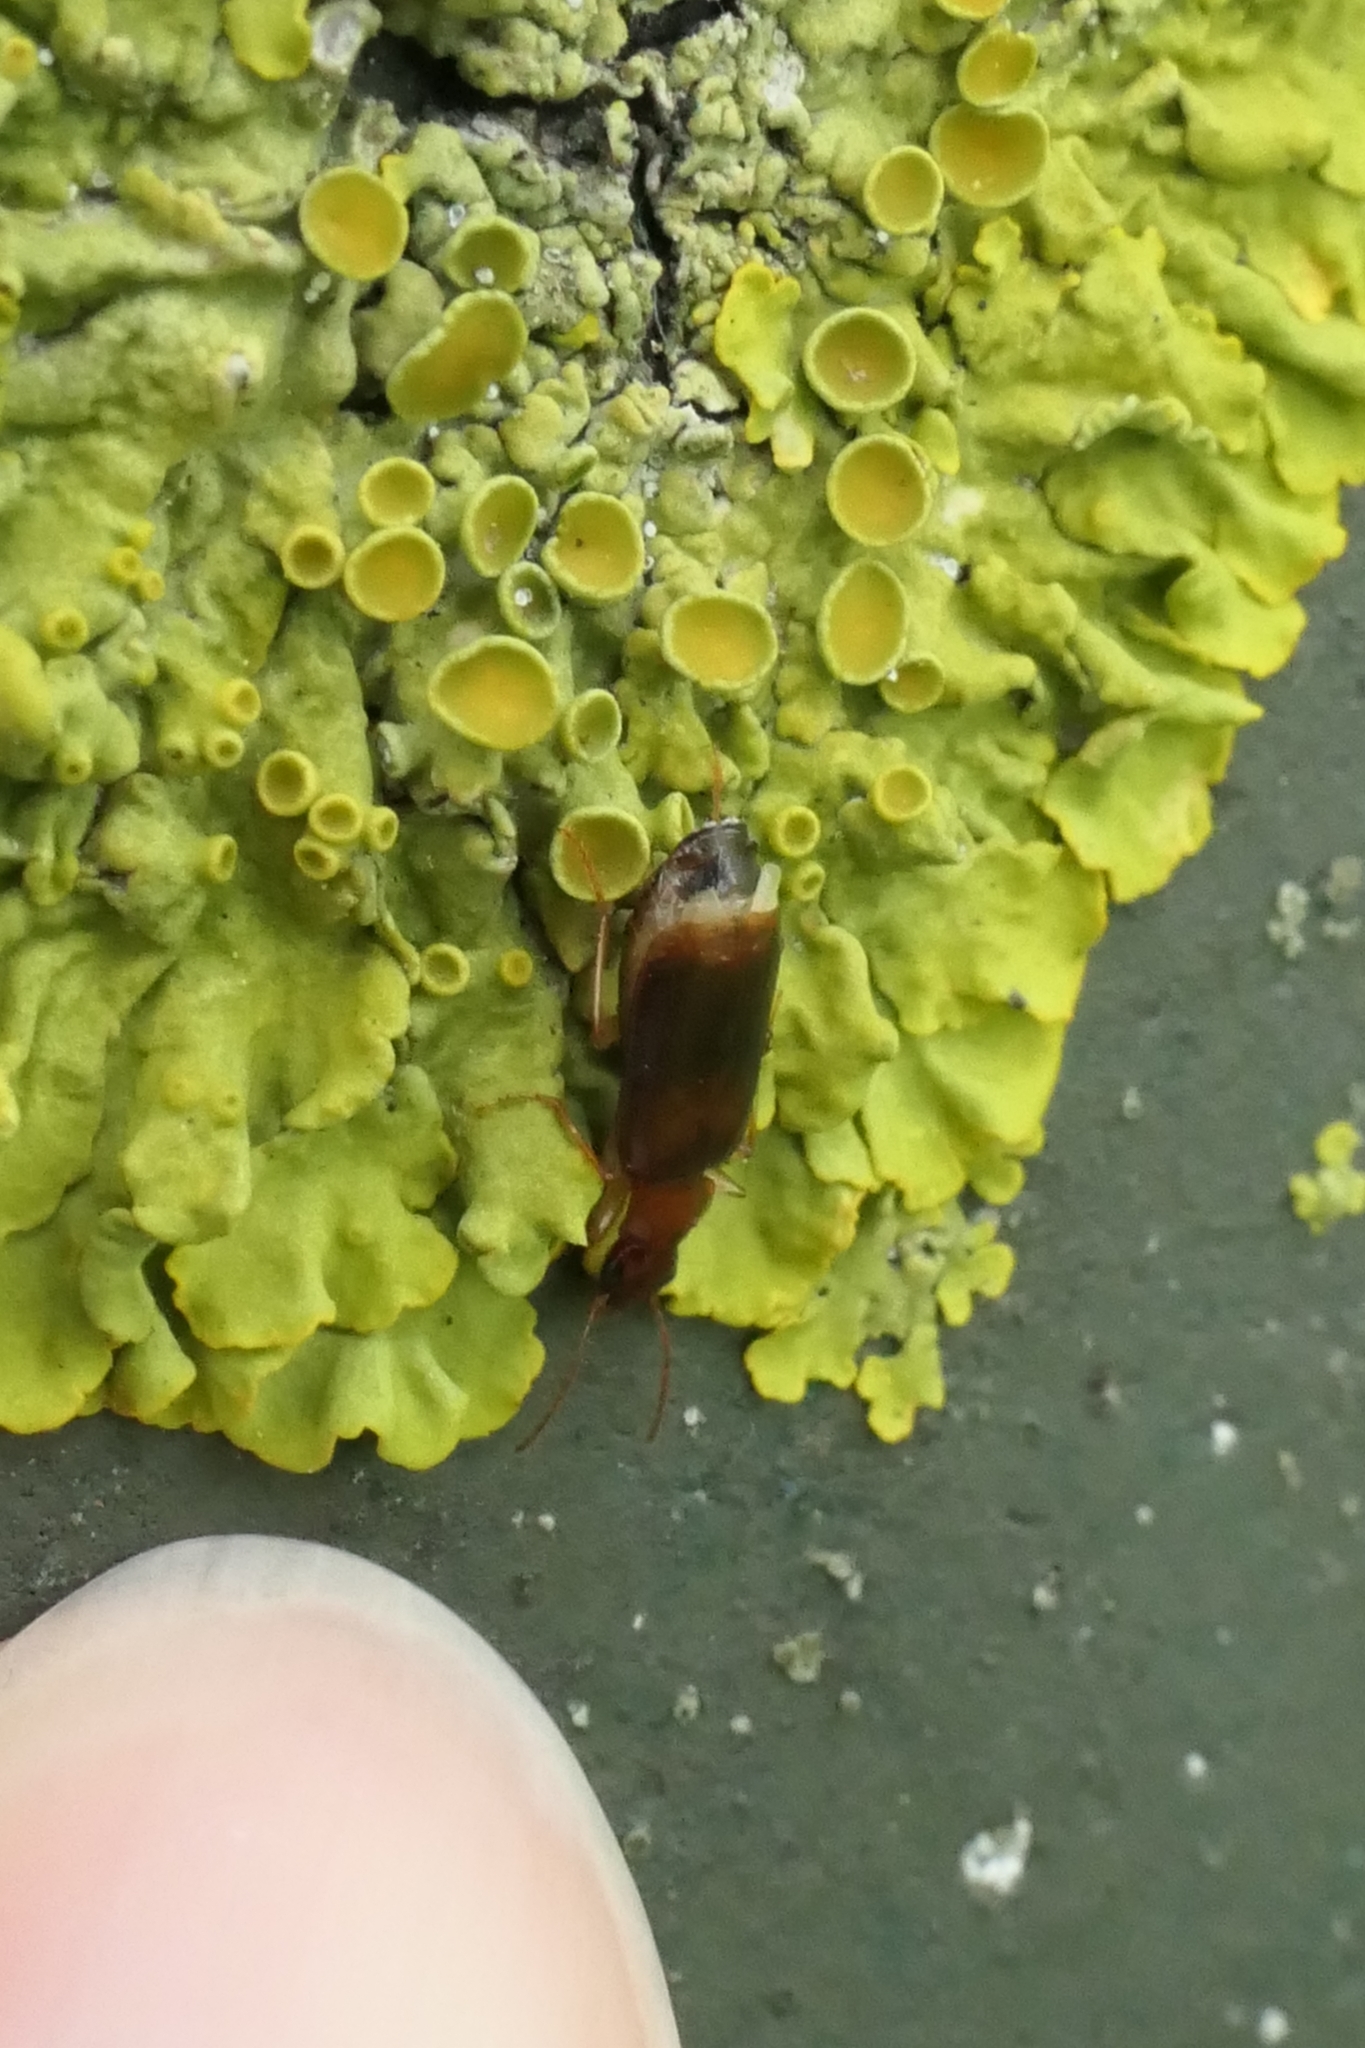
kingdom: Animalia
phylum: Arthropoda
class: Insecta
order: Coleoptera
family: Carabidae
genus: Dromius
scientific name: Dromius meridionalis
